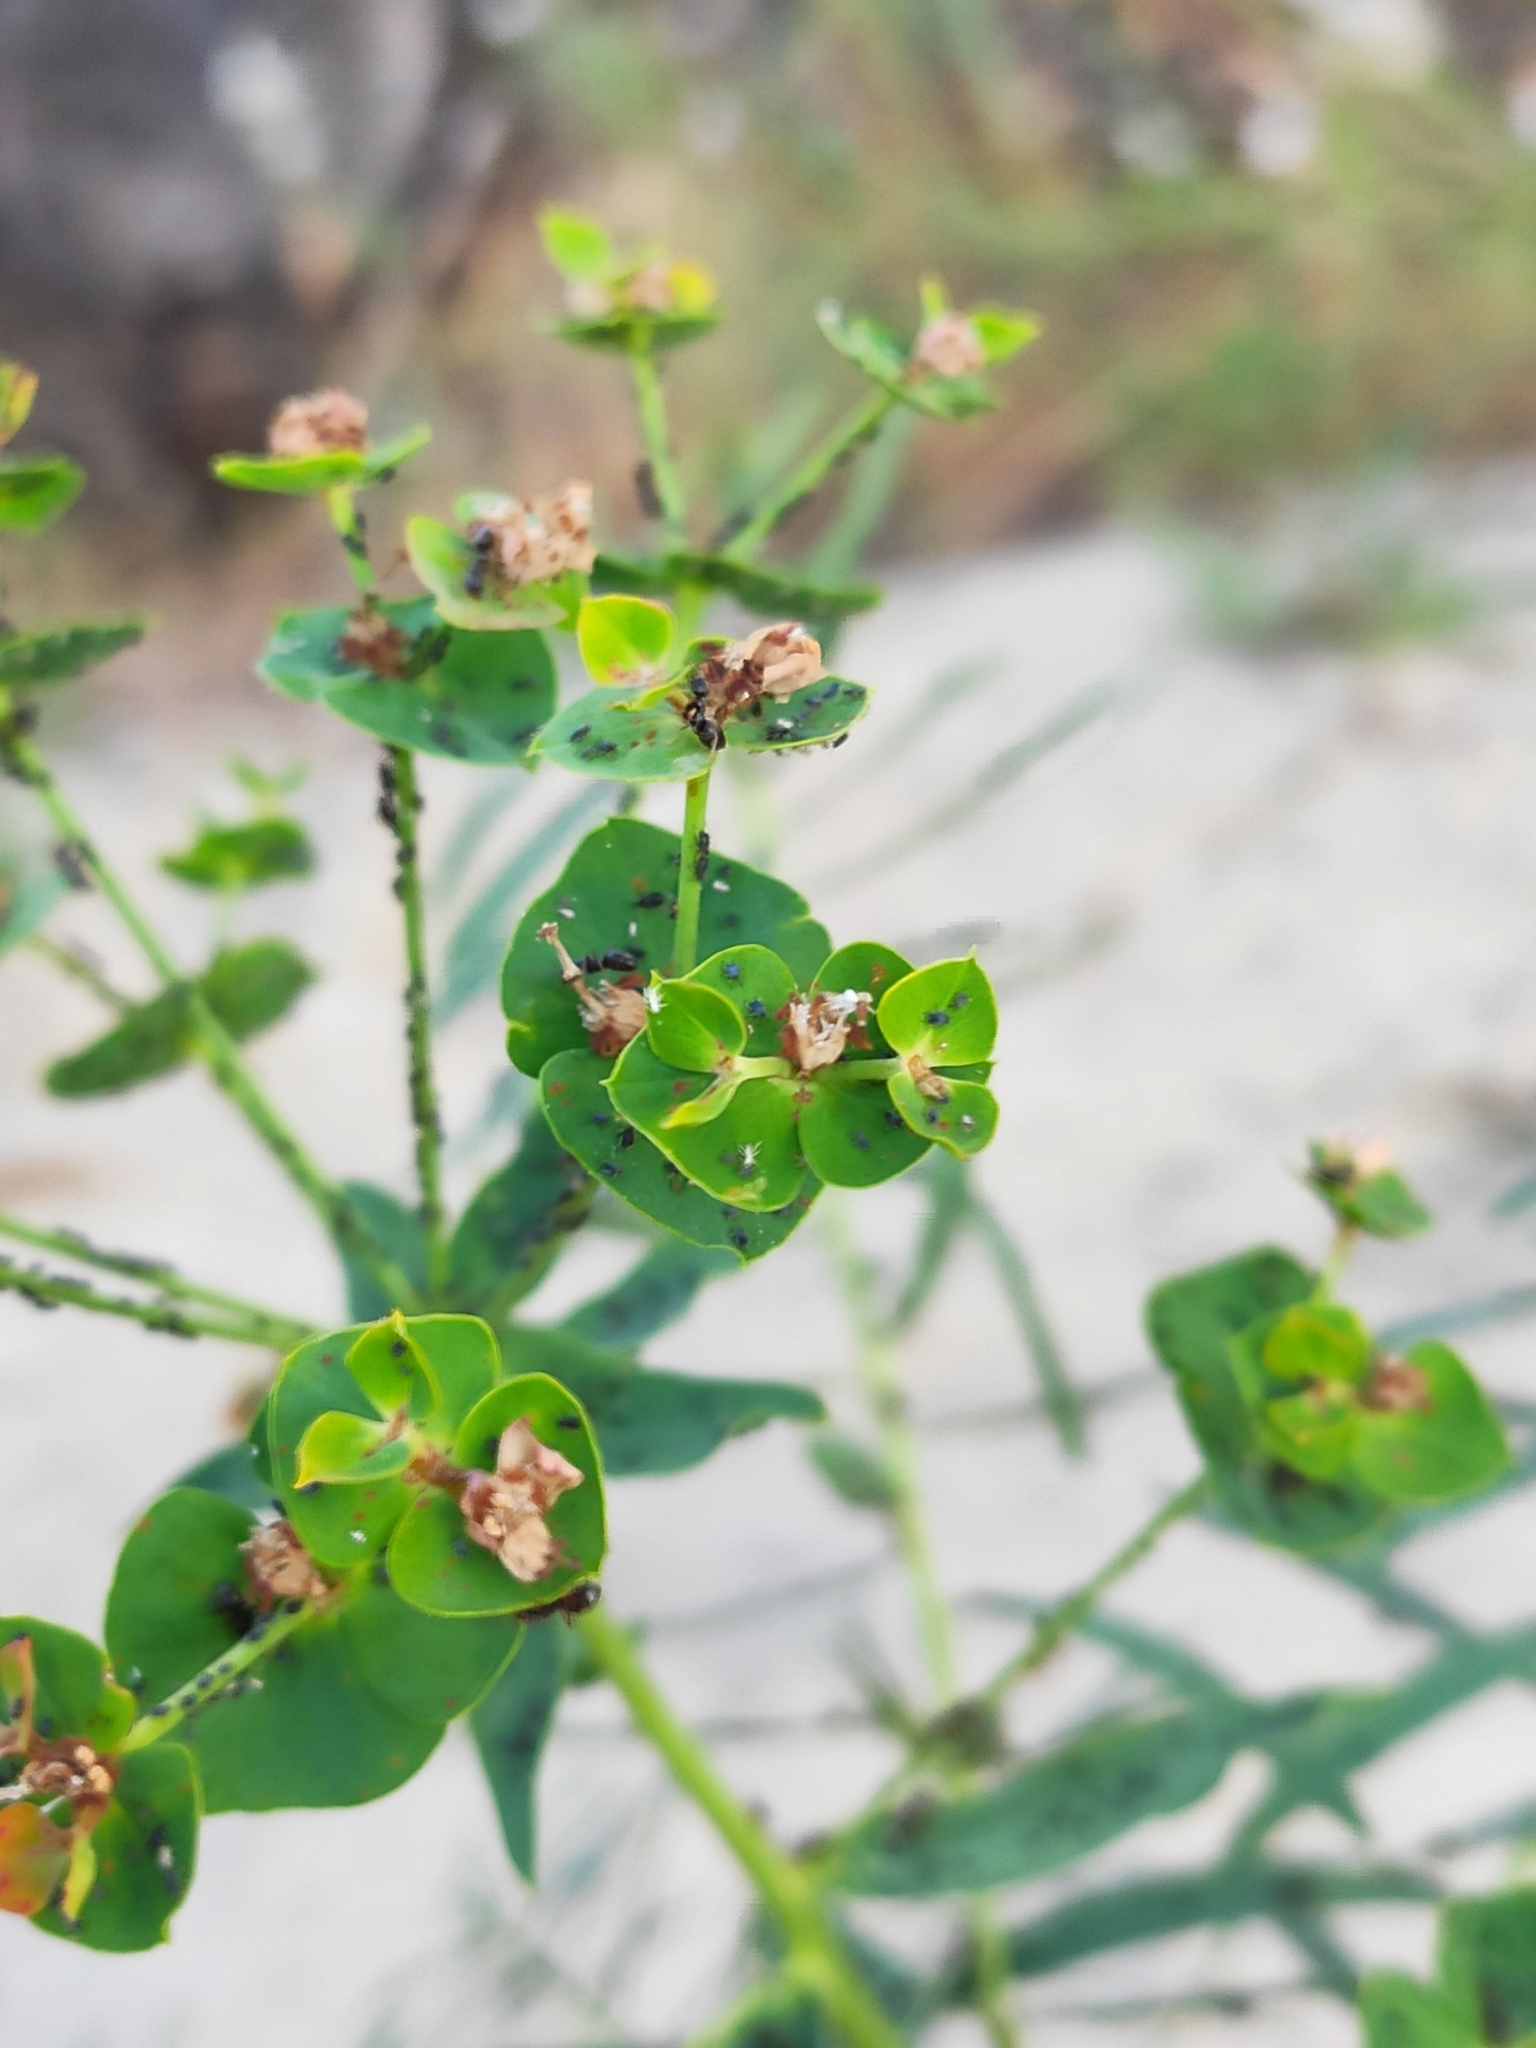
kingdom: Plantae
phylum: Tracheophyta
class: Magnoliopsida
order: Malpighiales
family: Euphorbiaceae
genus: Euphorbia
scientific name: Euphorbia virgata
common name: Leafy spurge
